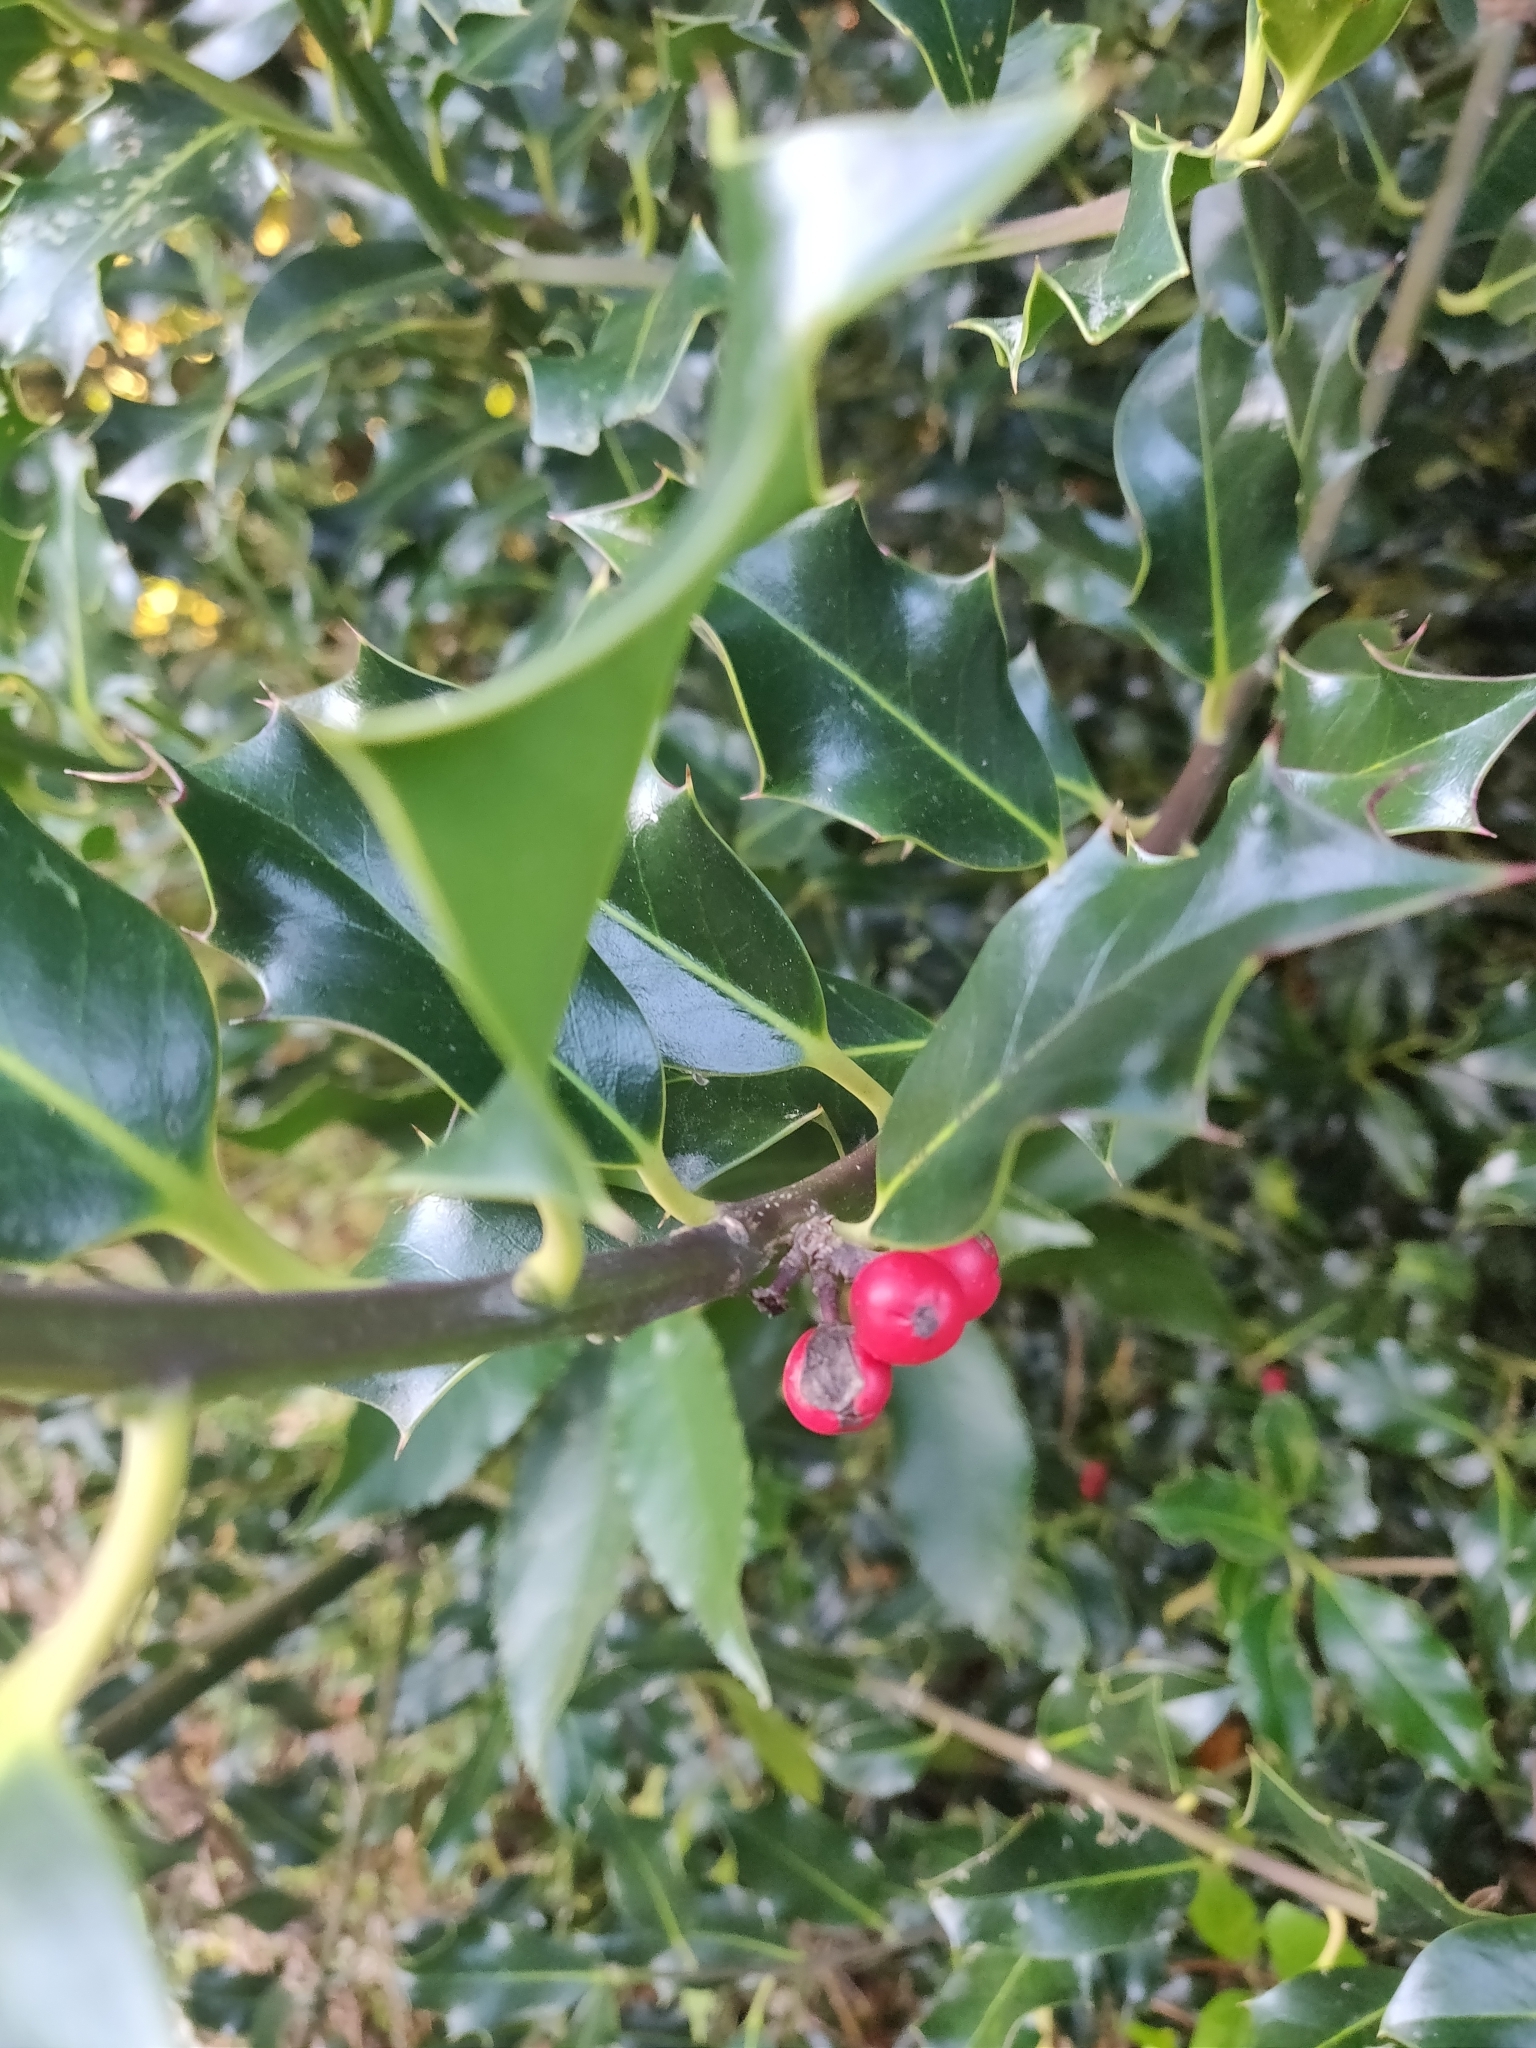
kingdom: Plantae
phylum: Tracheophyta
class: Magnoliopsida
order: Aquifoliales
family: Aquifoliaceae
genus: Ilex
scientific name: Ilex aquifolium
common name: English holly
